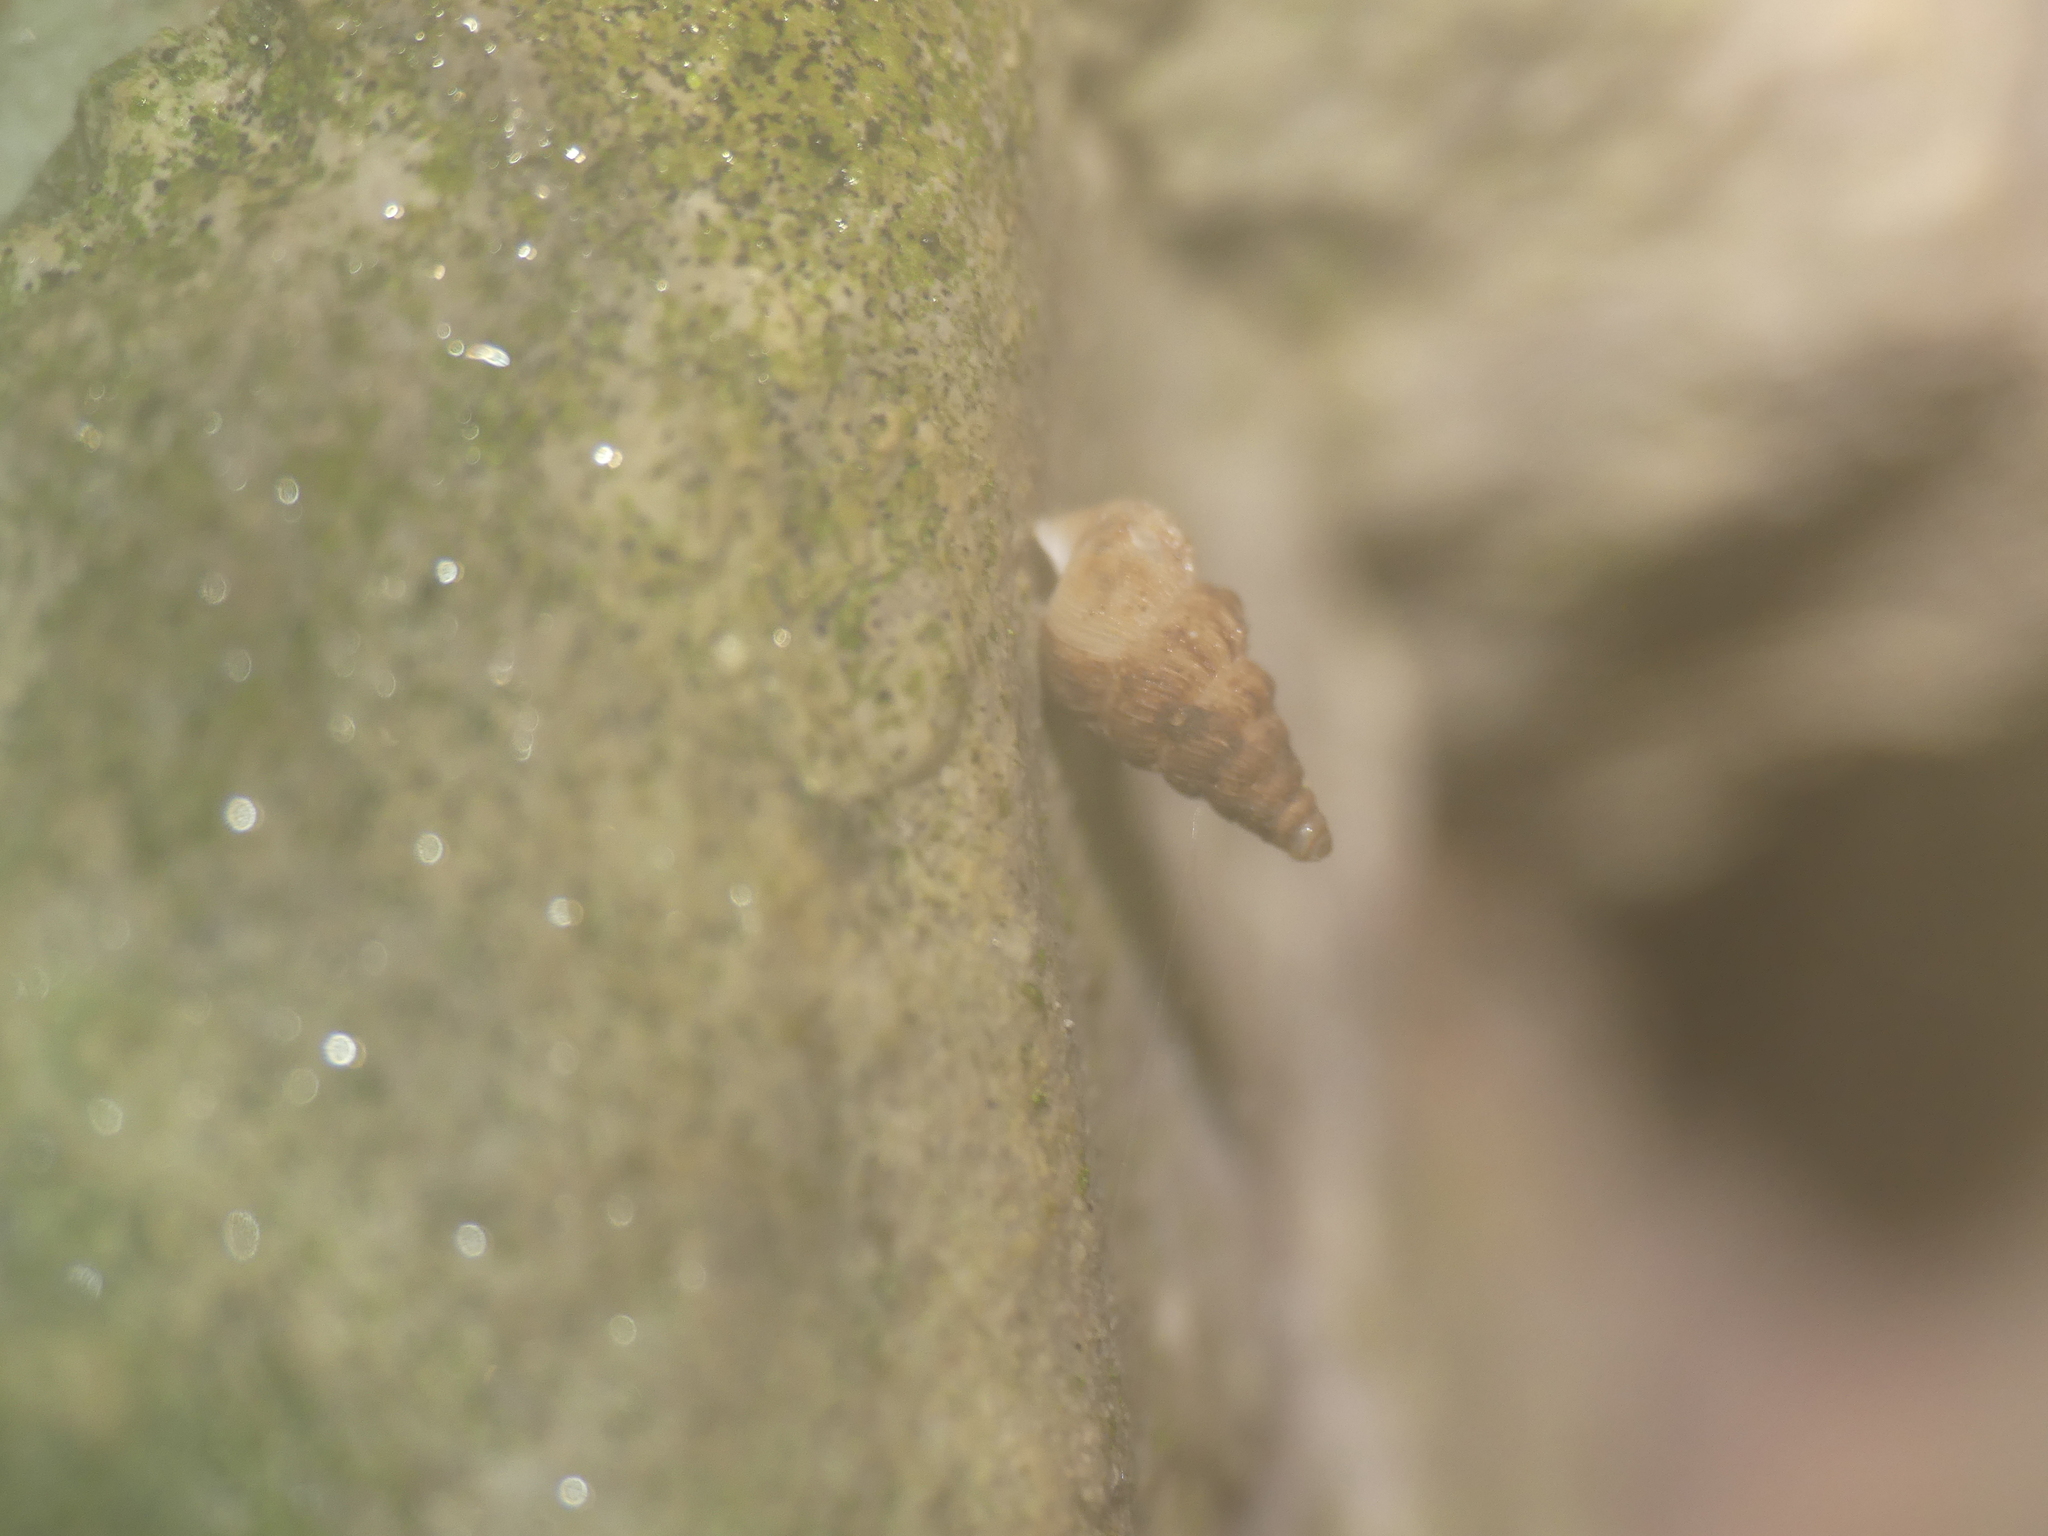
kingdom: Animalia
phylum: Mollusca
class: Gastropoda
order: Architaenioglossa
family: Cochlostomatidae
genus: Cochlostoma
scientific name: Cochlostoma septemspirale
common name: Seven-whorl snail
